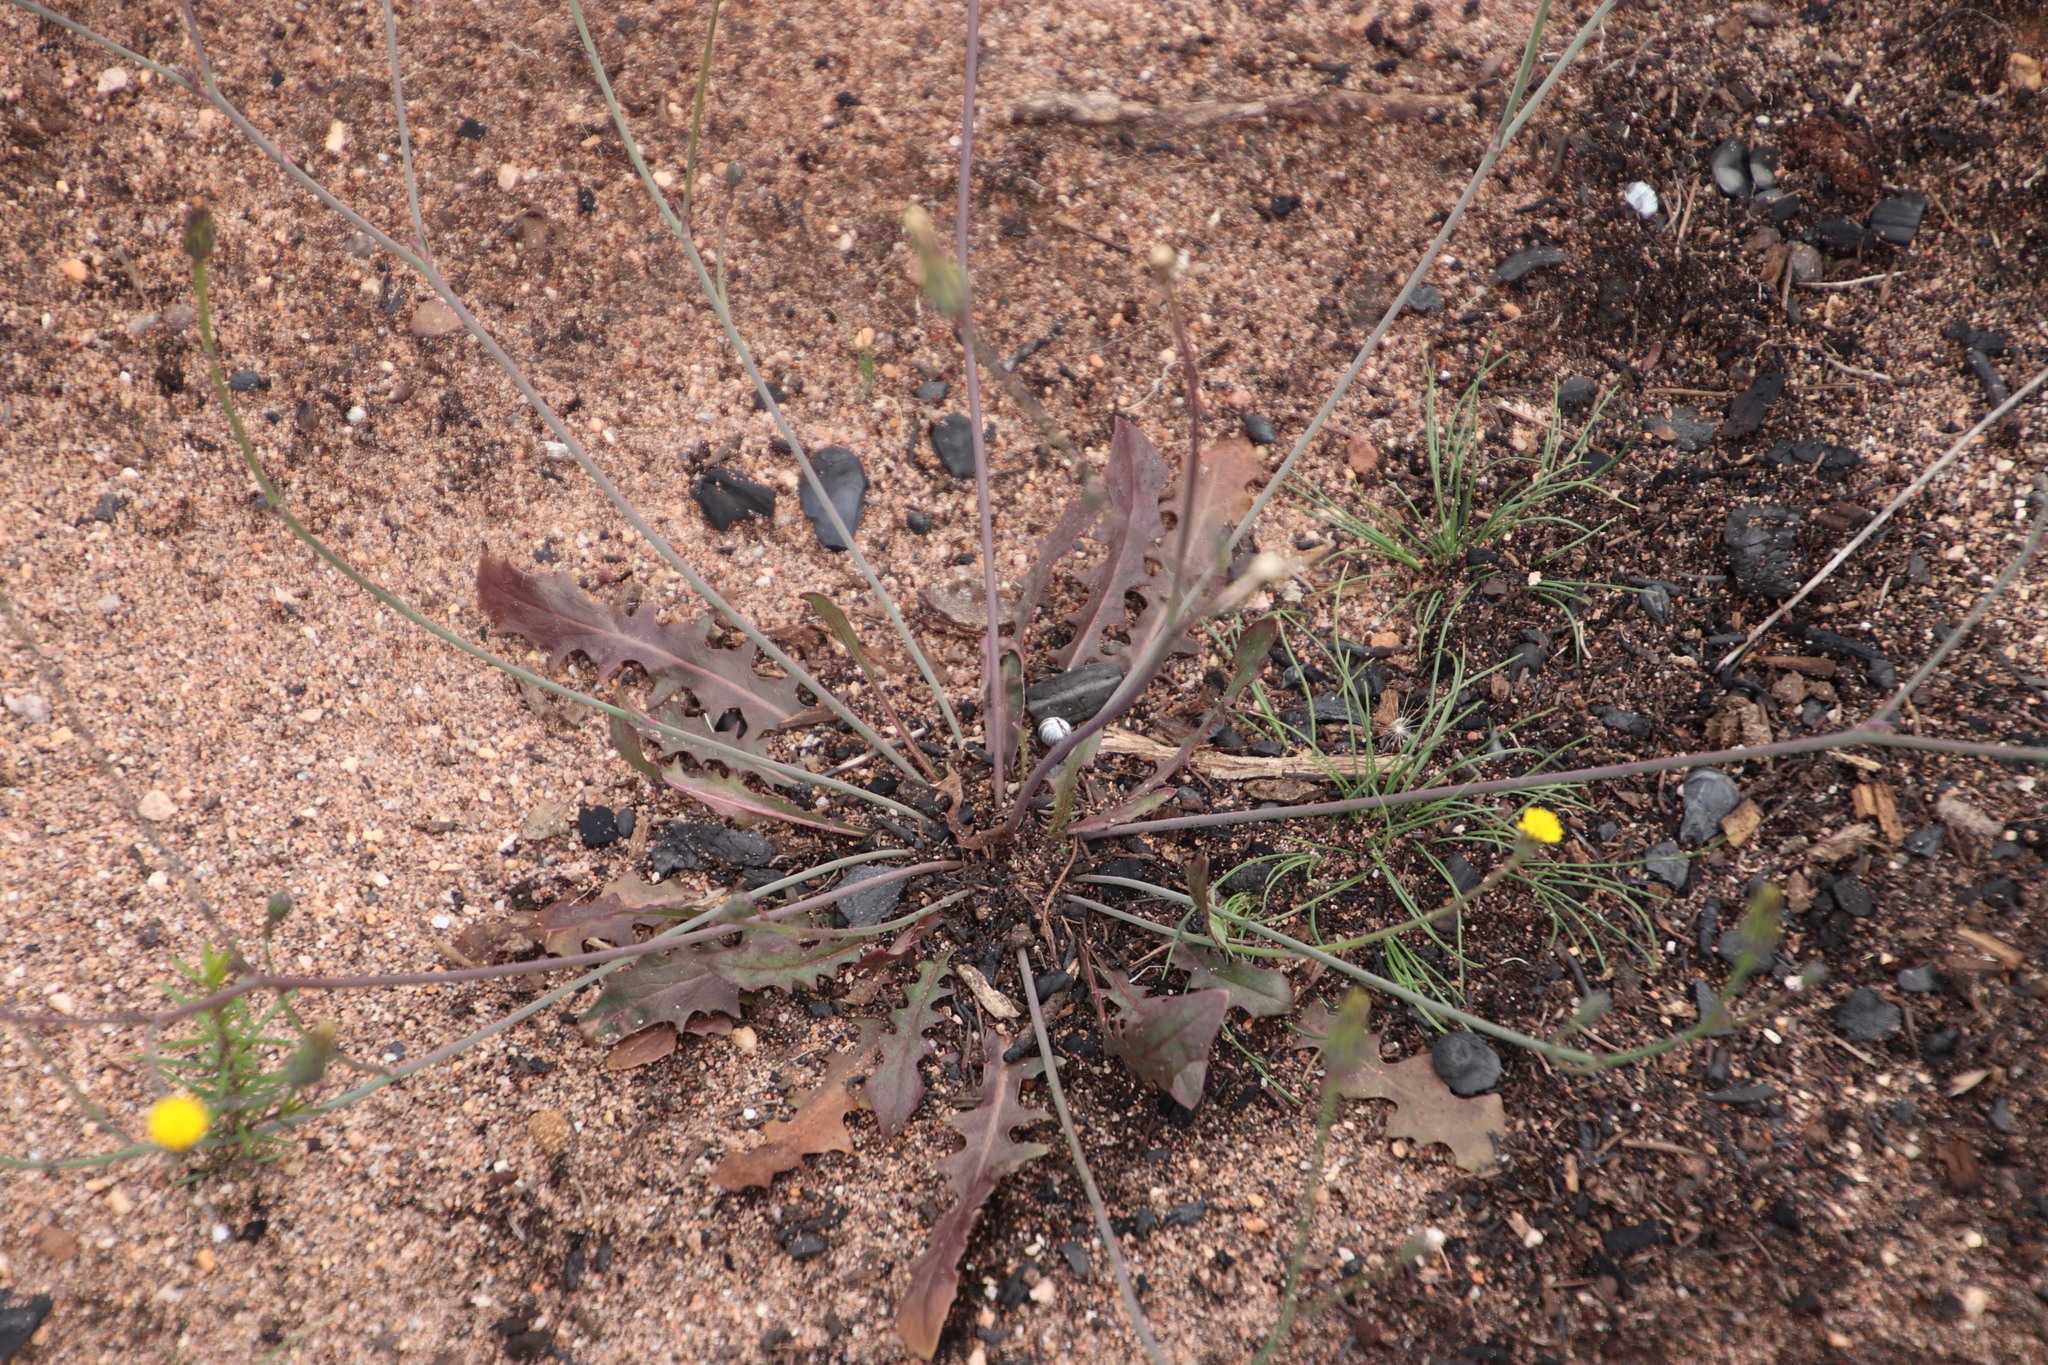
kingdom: Plantae
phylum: Tracheophyta
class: Magnoliopsida
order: Asterales
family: Asteraceae
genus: Hypochaeris
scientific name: Hypochaeris glabra
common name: Smooth catsear
